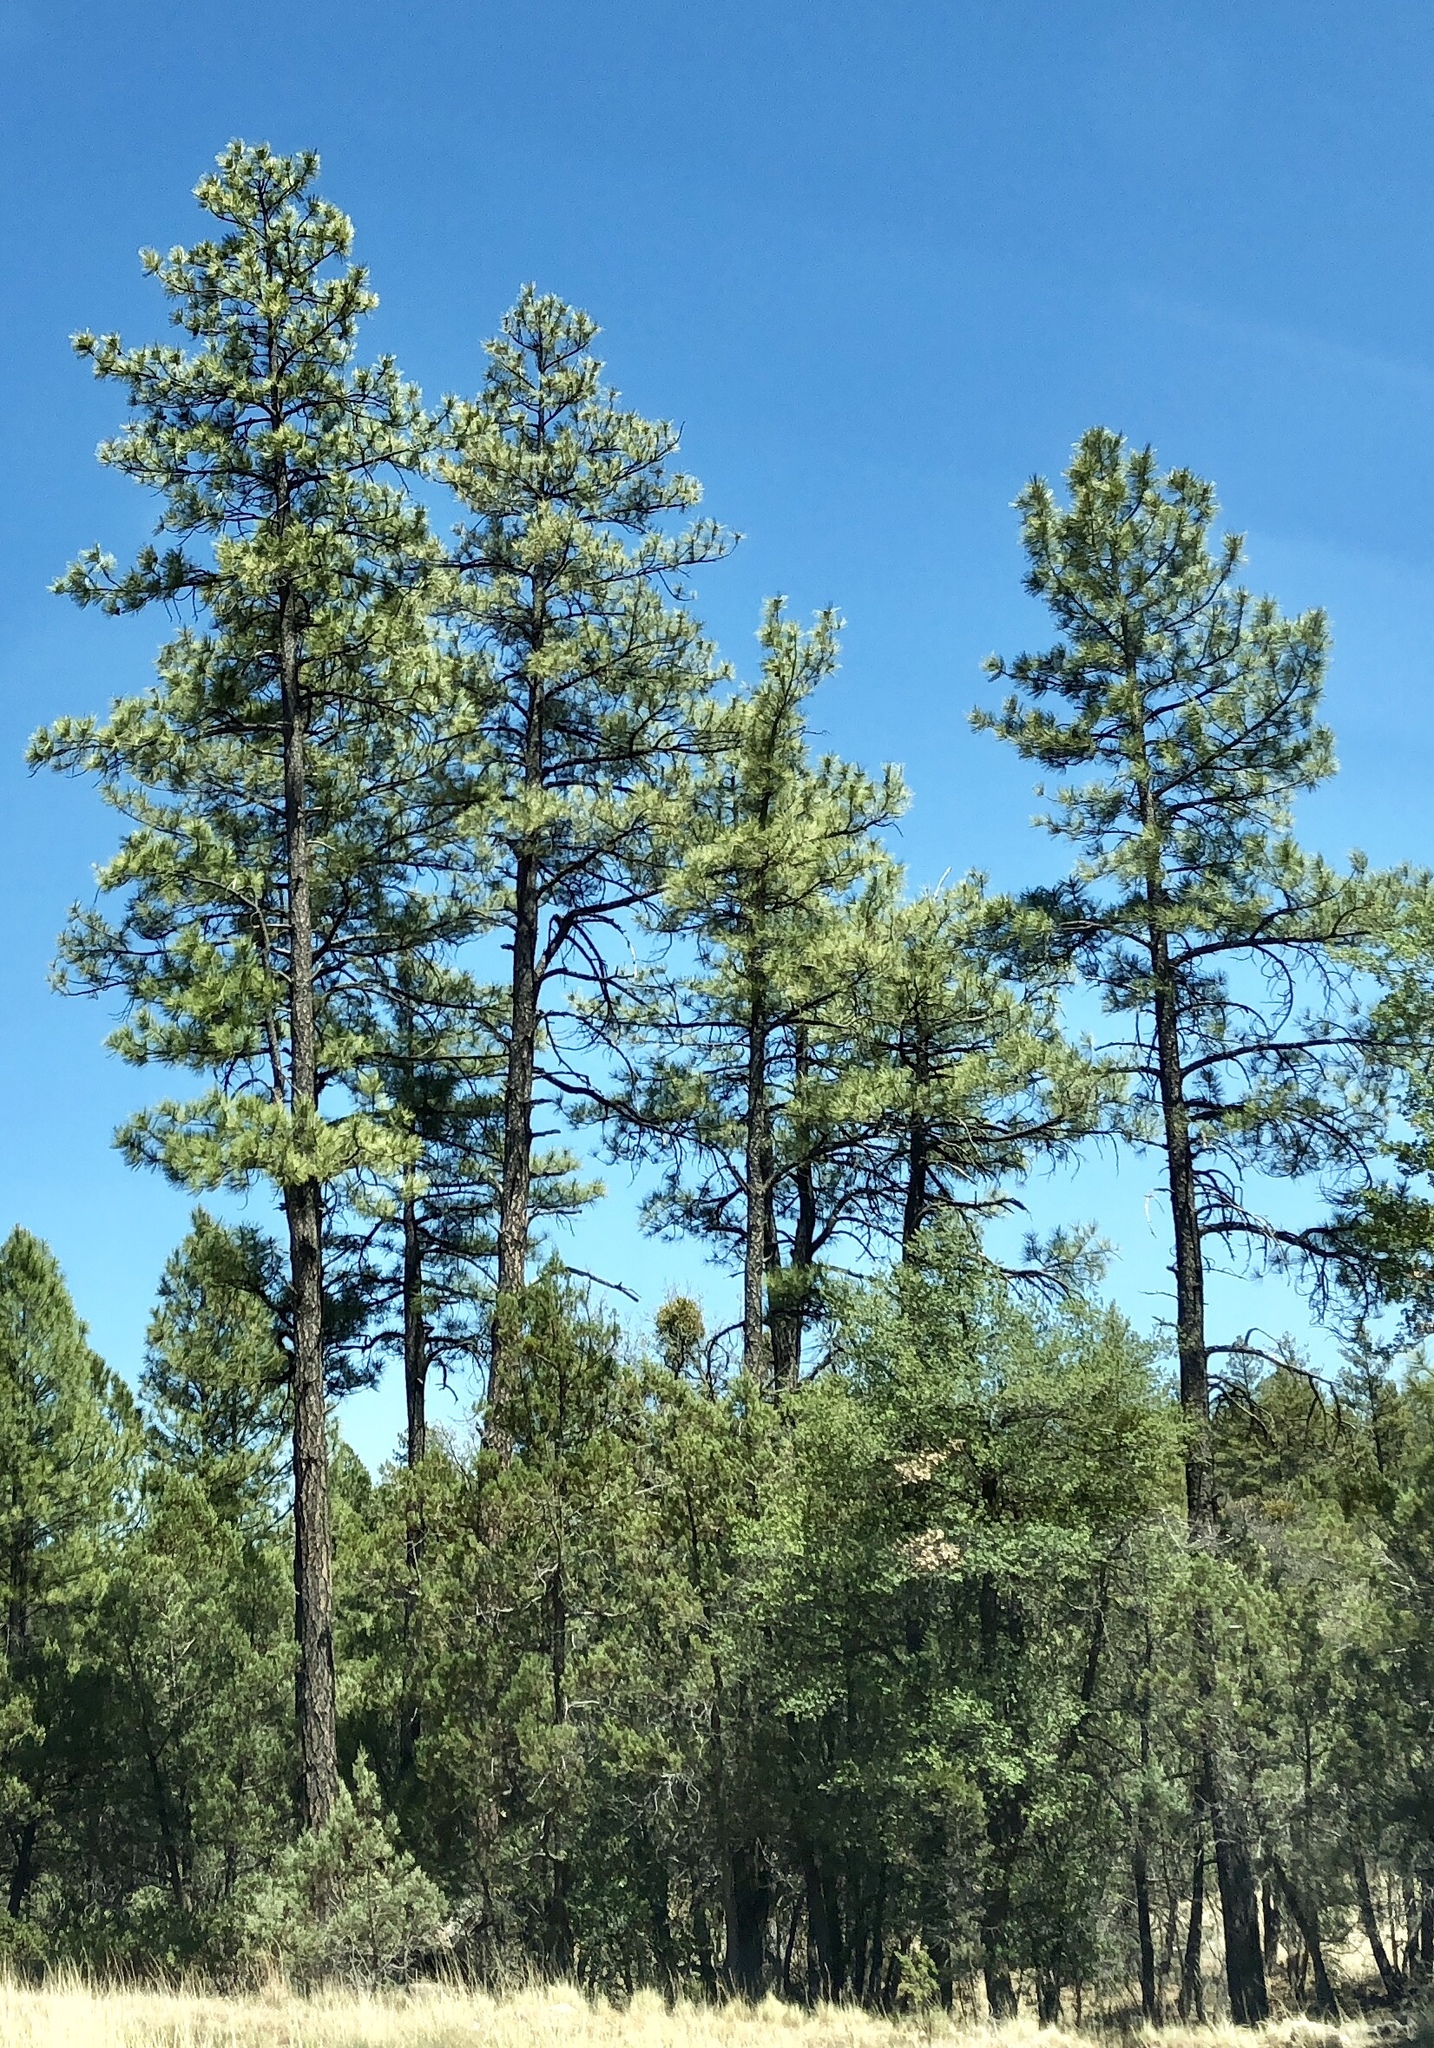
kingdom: Plantae
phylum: Tracheophyta
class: Pinopsida
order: Pinales
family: Pinaceae
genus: Pinus
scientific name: Pinus ponderosa
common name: Western yellow-pine
